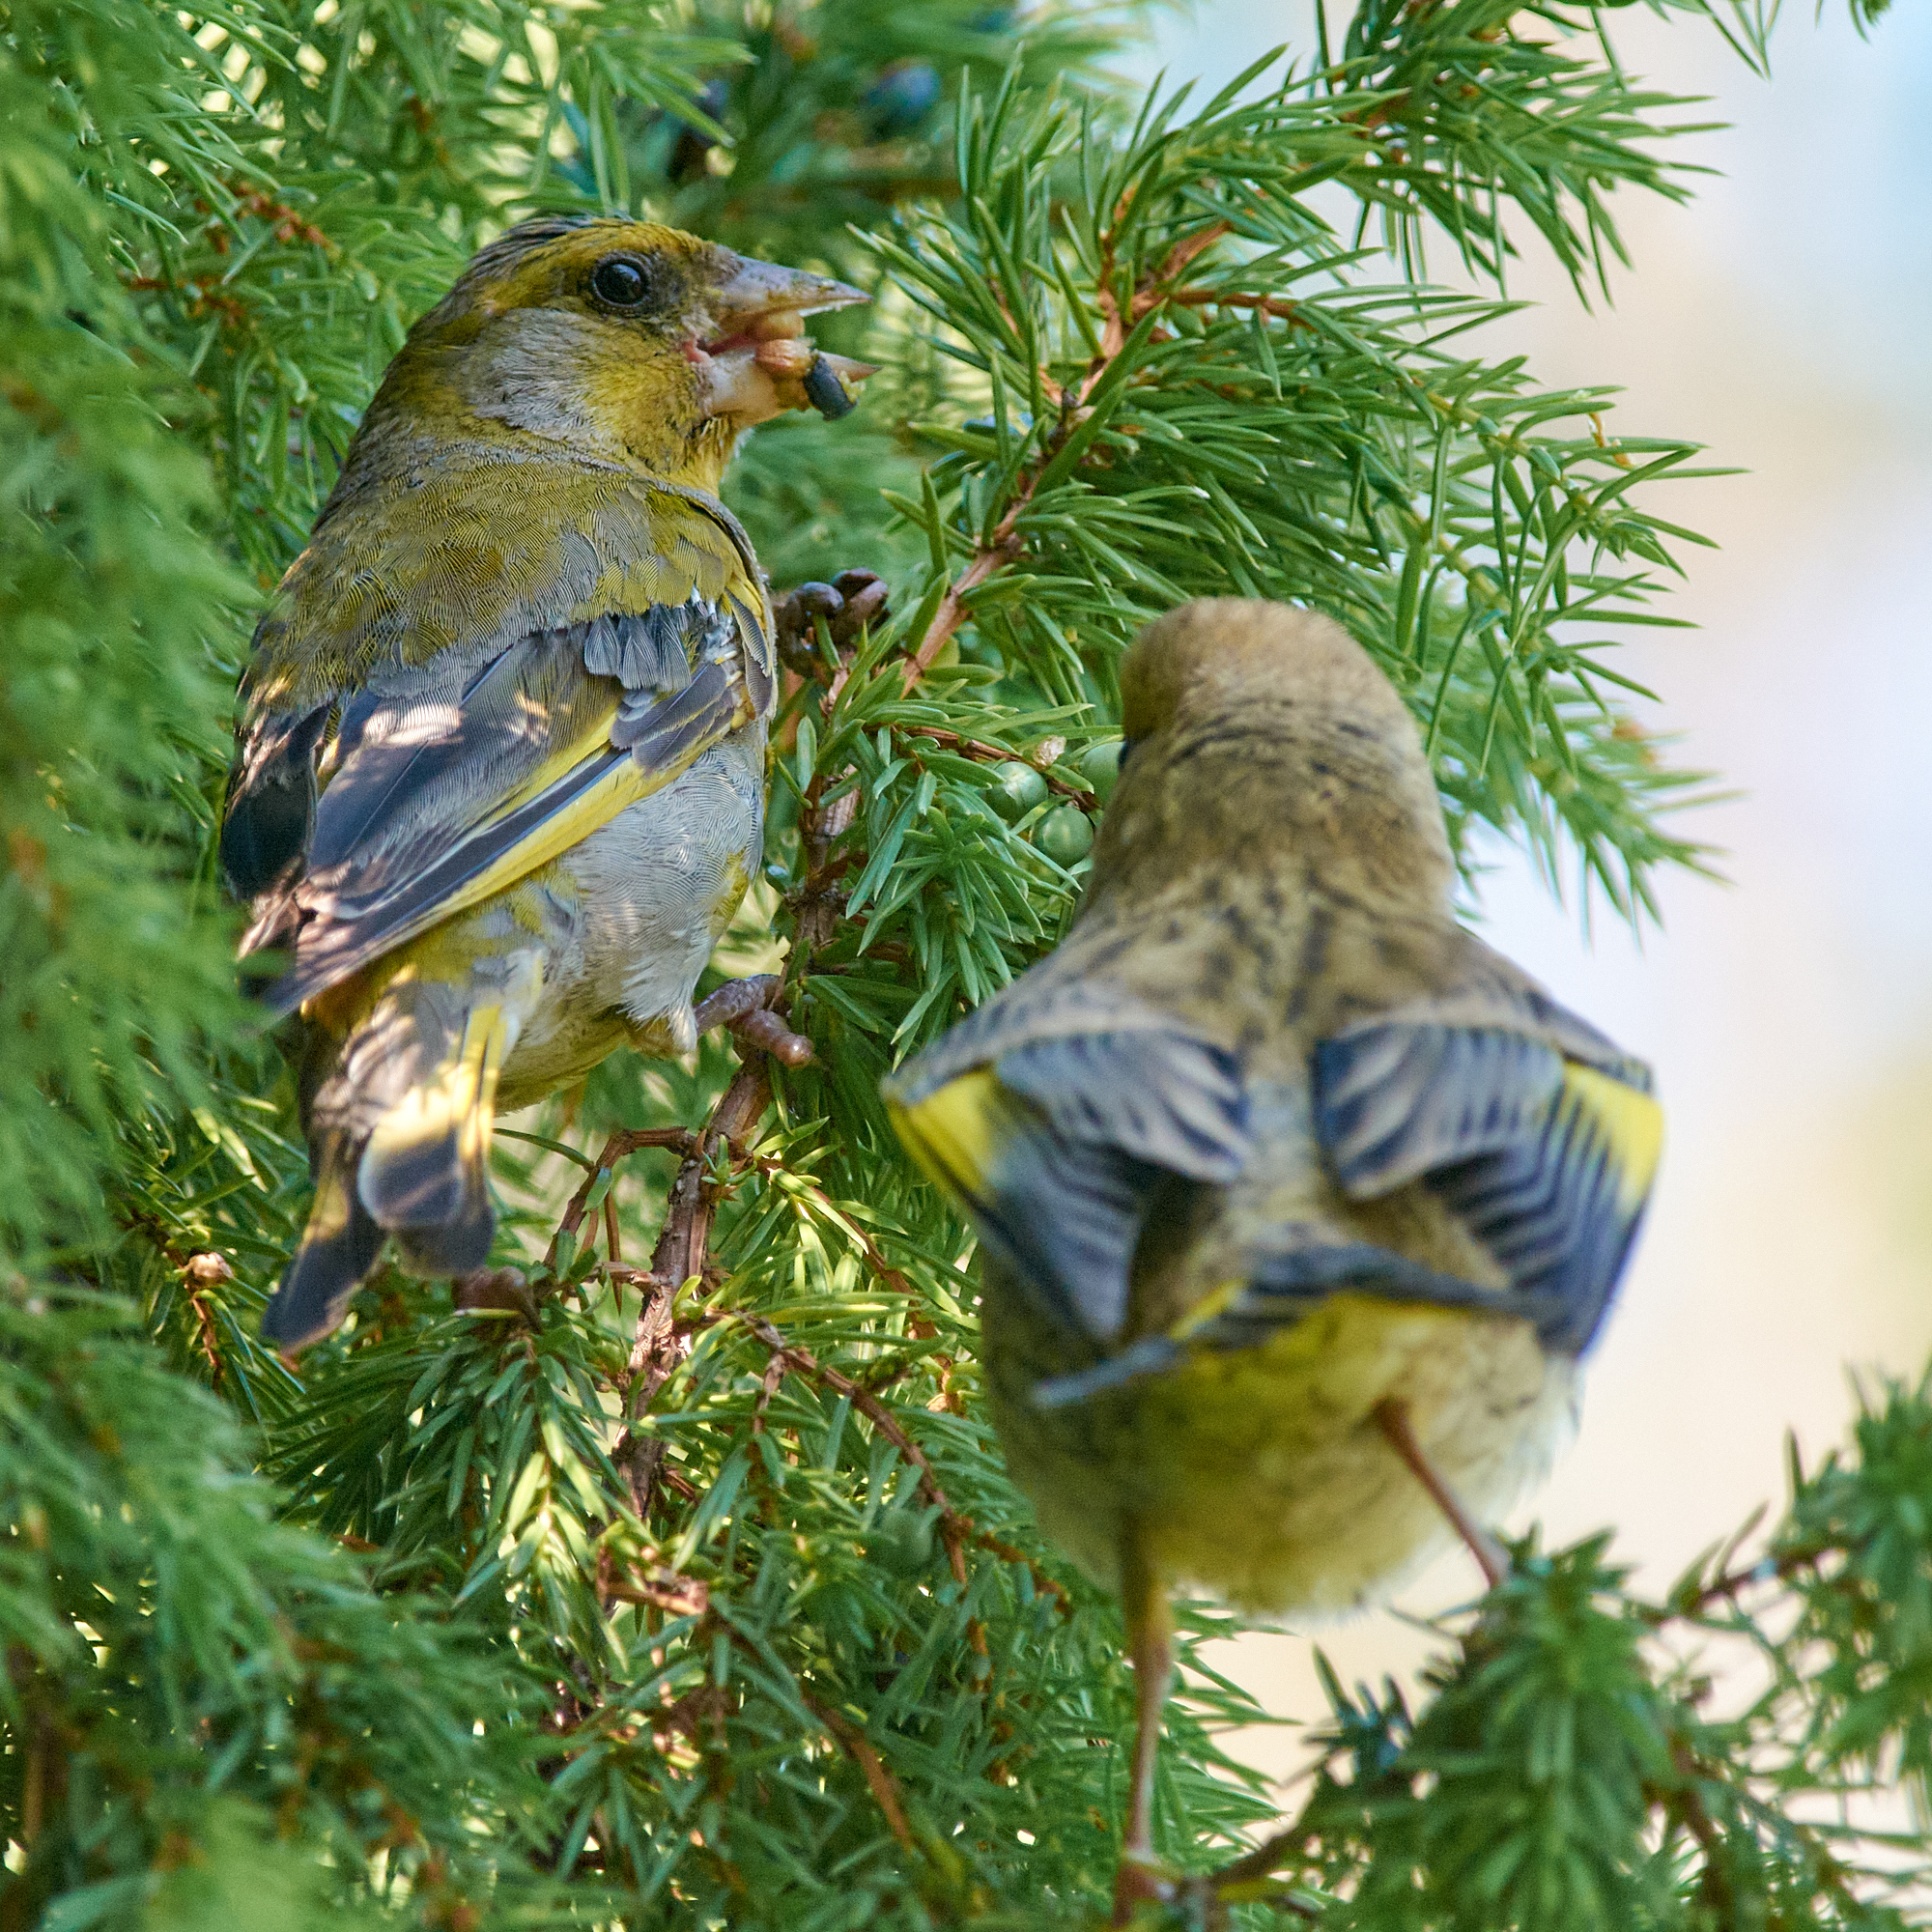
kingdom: Plantae
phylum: Tracheophyta
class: Liliopsida
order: Poales
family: Poaceae
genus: Chloris
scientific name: Chloris chloris
